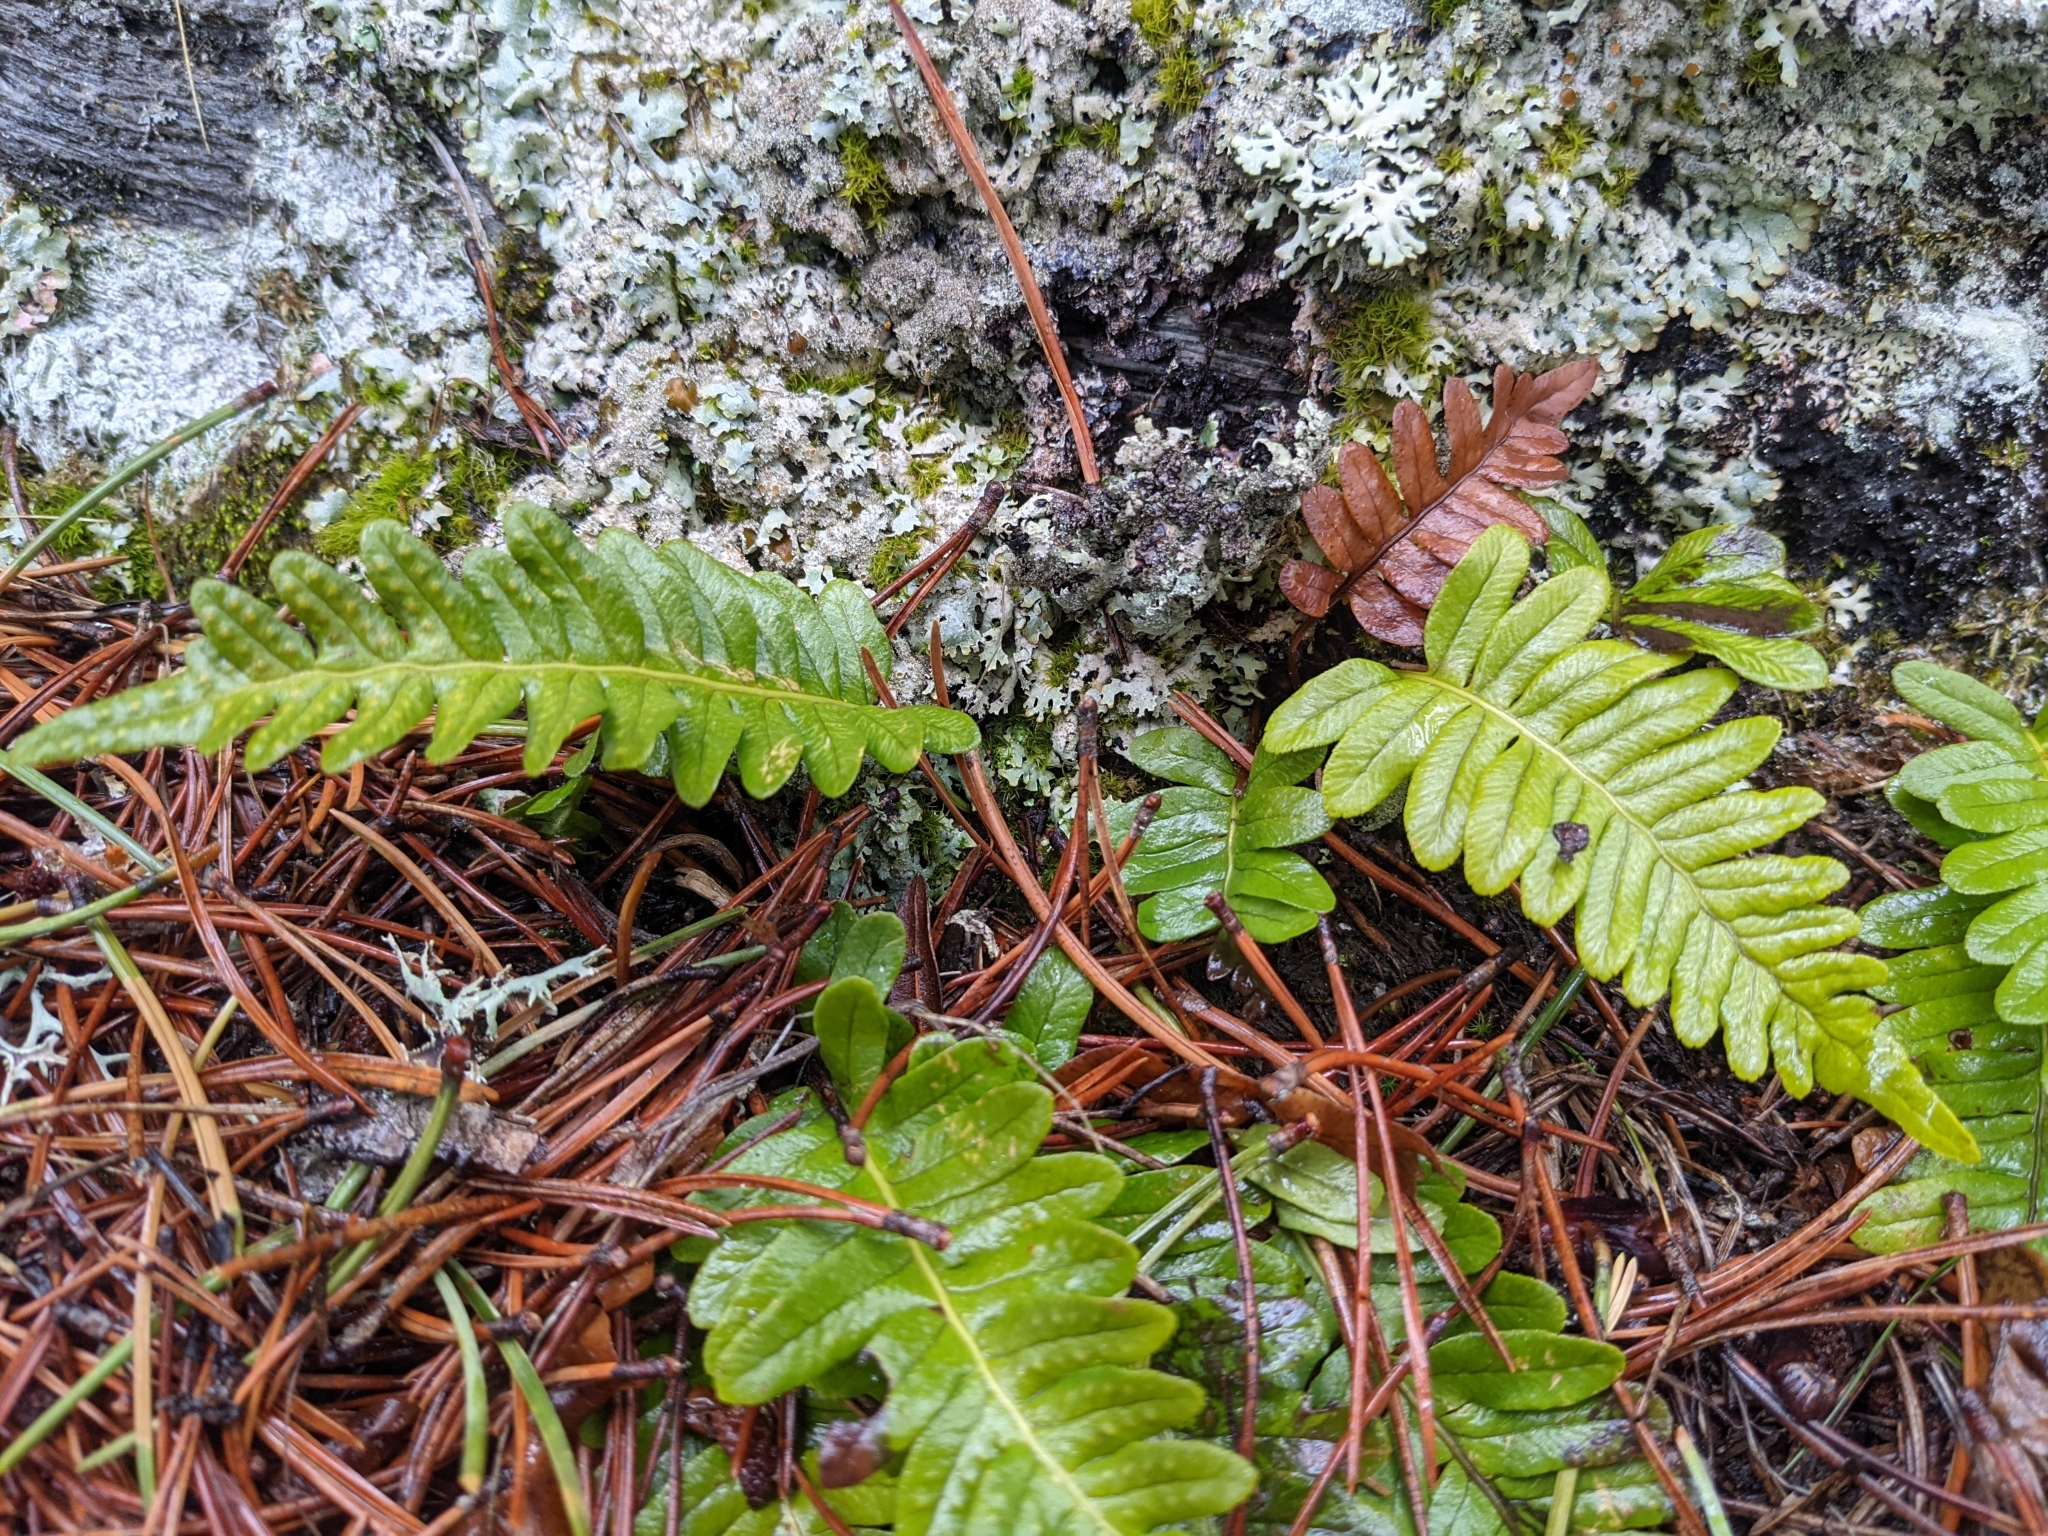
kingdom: Plantae
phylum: Tracheophyta
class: Polypodiopsida
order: Polypodiales
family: Polypodiaceae
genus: Polypodium
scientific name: Polypodium vulgare
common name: Common polypody
